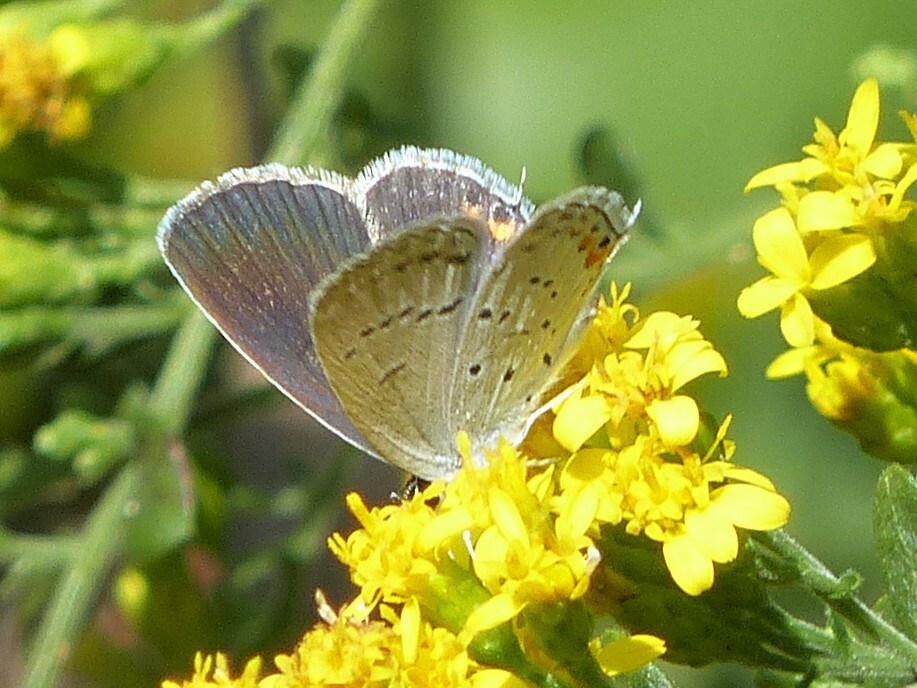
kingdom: Animalia
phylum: Arthropoda
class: Insecta
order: Lepidoptera
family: Lycaenidae
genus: Elkalyce
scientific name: Elkalyce comyntas
